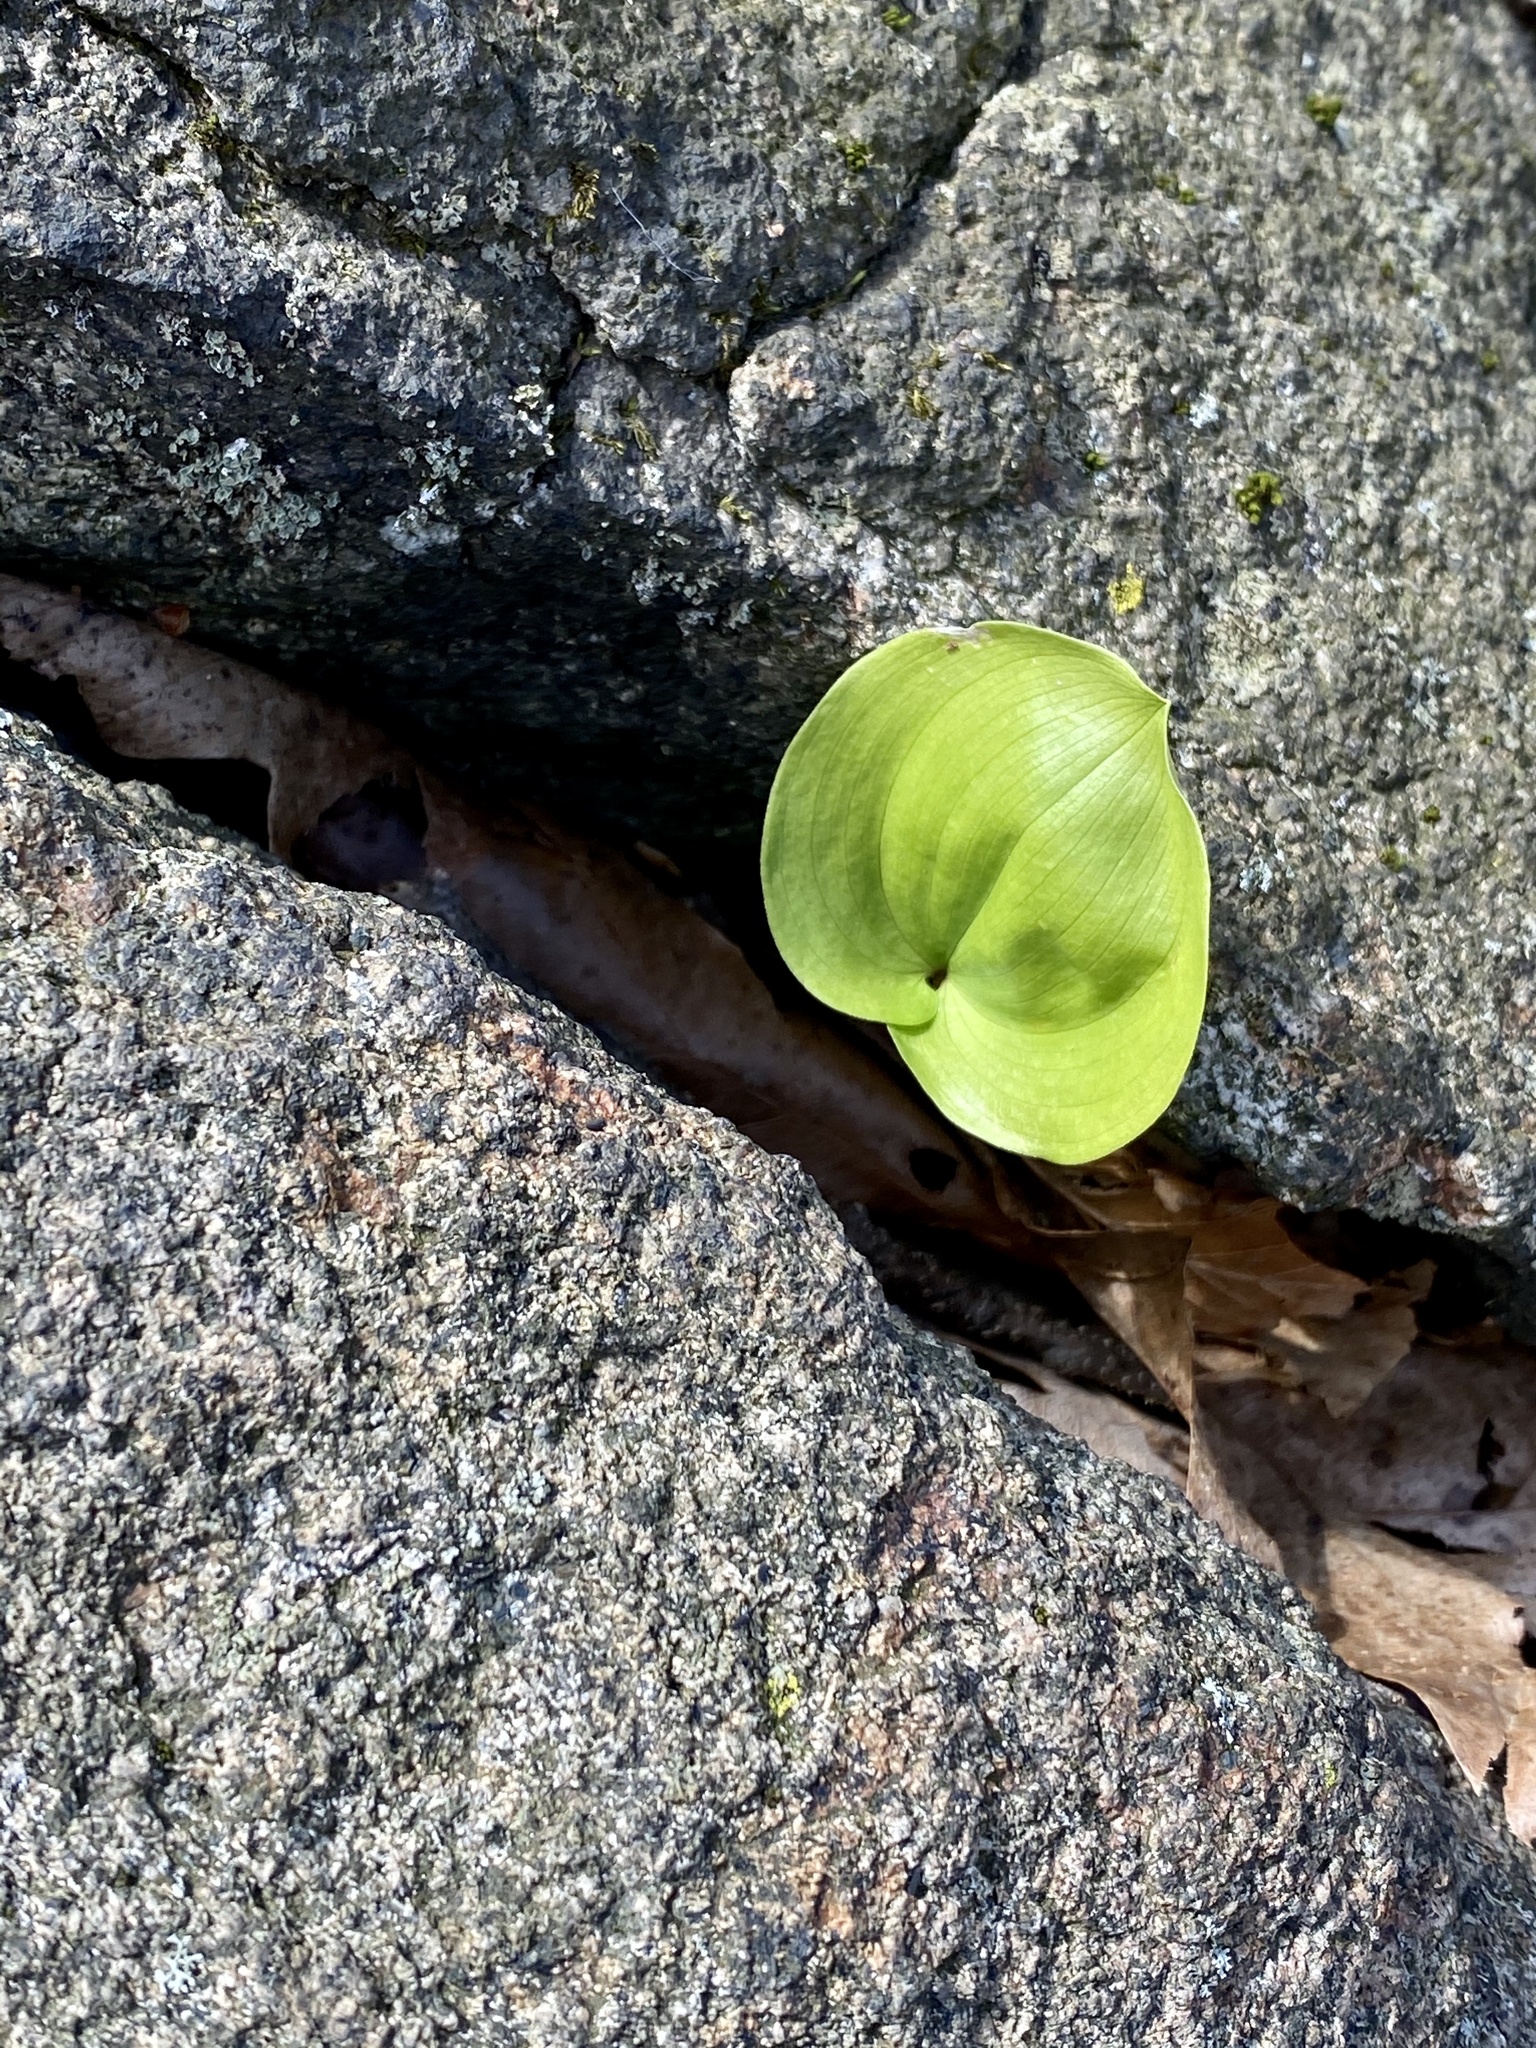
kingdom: Plantae
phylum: Tracheophyta
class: Liliopsida
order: Asparagales
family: Asparagaceae
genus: Maianthemum
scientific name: Maianthemum canadense
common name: False lily-of-the-valley
